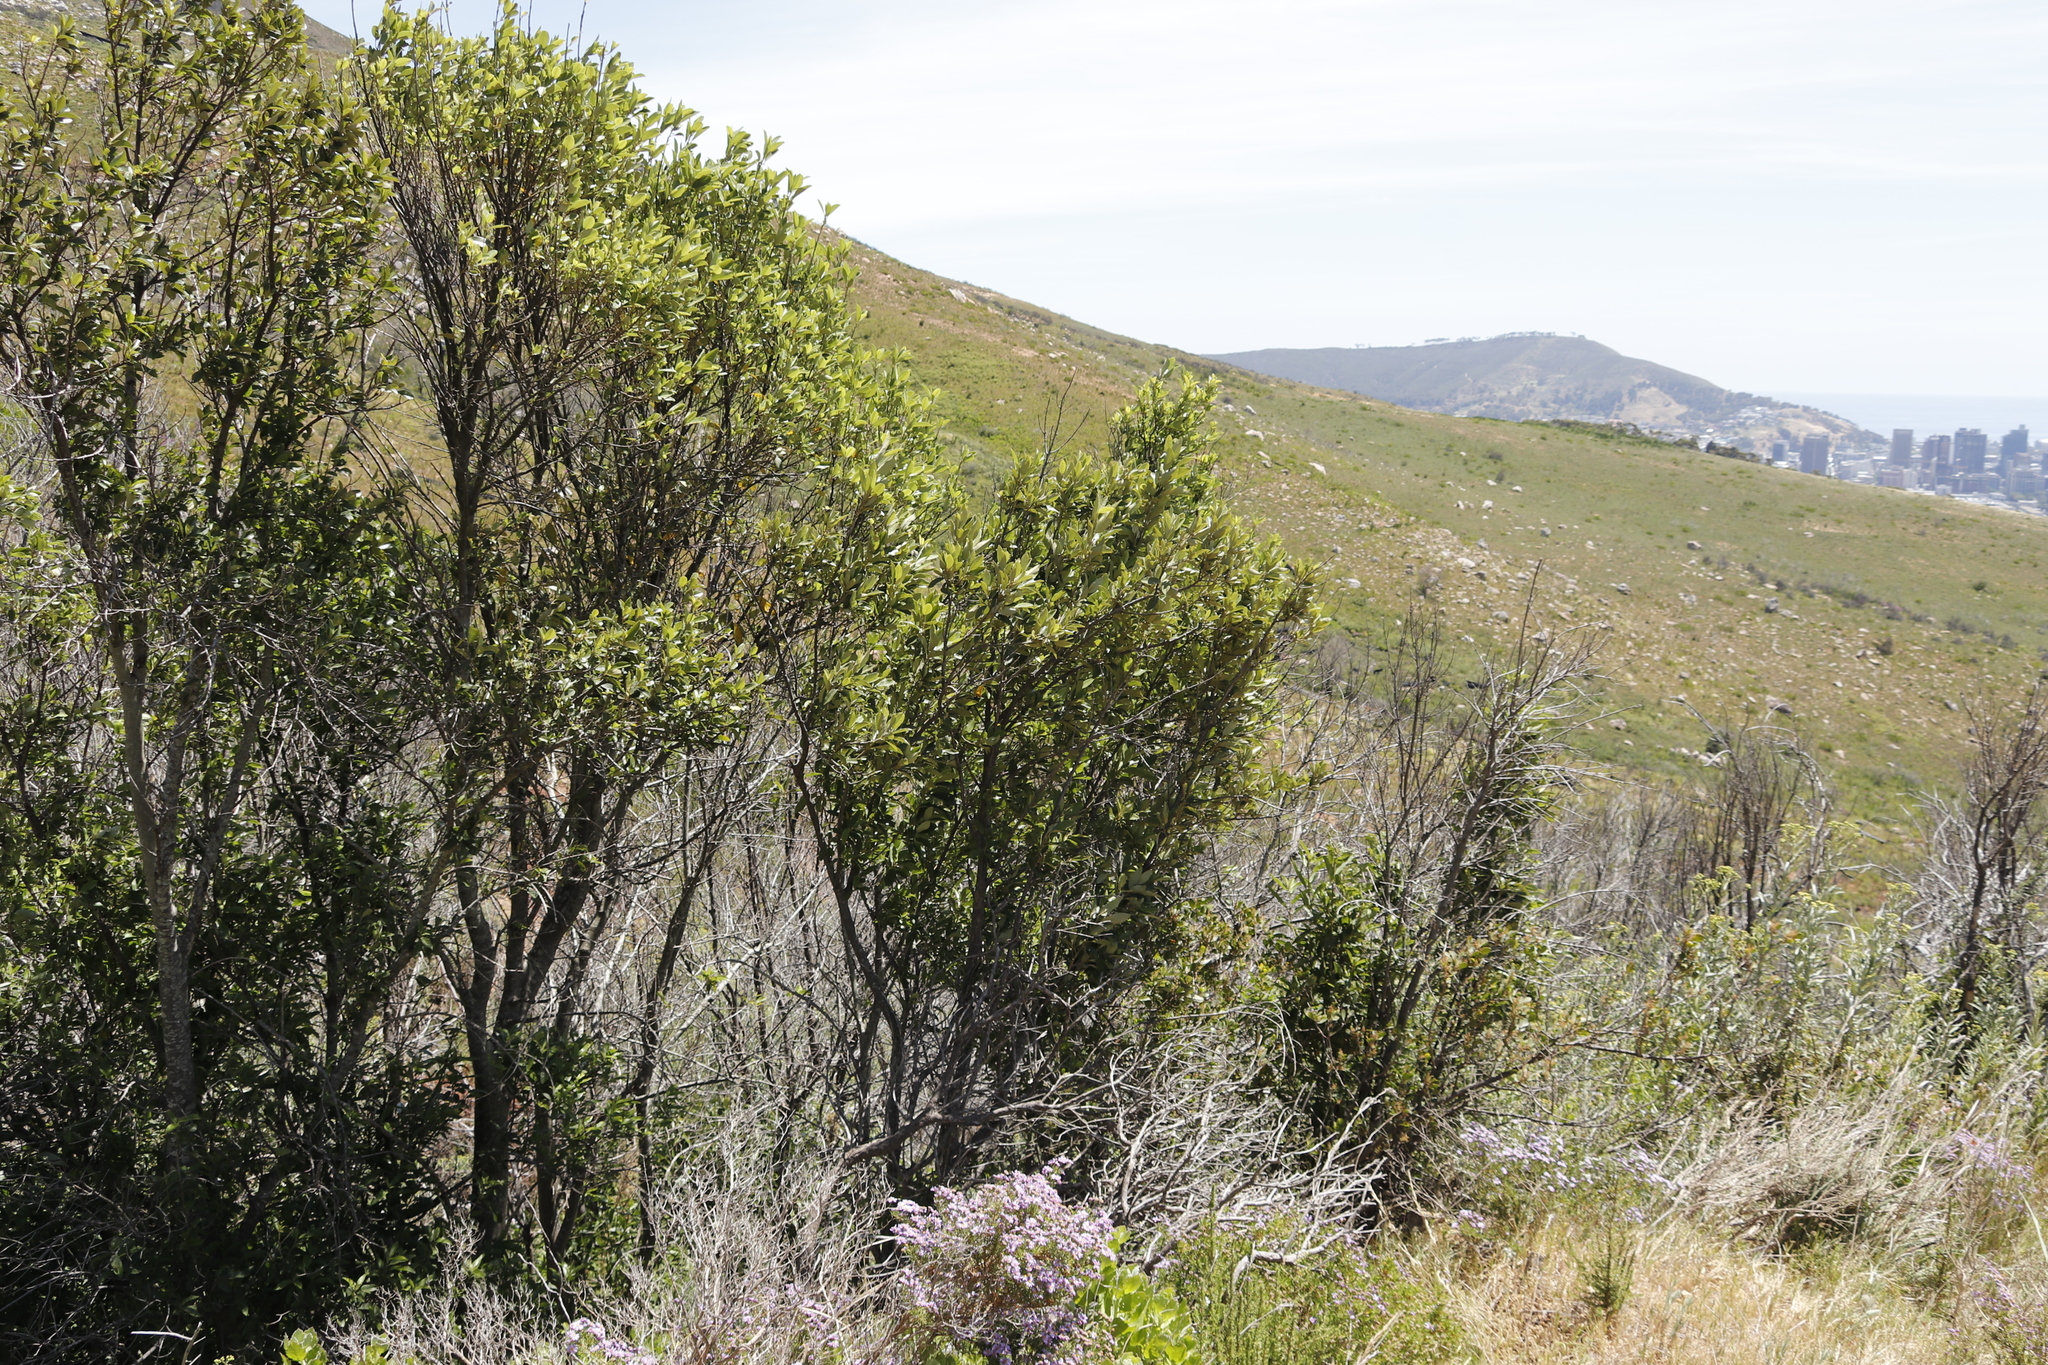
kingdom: Plantae
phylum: Tracheophyta
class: Magnoliopsida
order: Malpighiales
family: Achariaceae
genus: Kiggelaria
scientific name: Kiggelaria africana
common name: Wild peach
